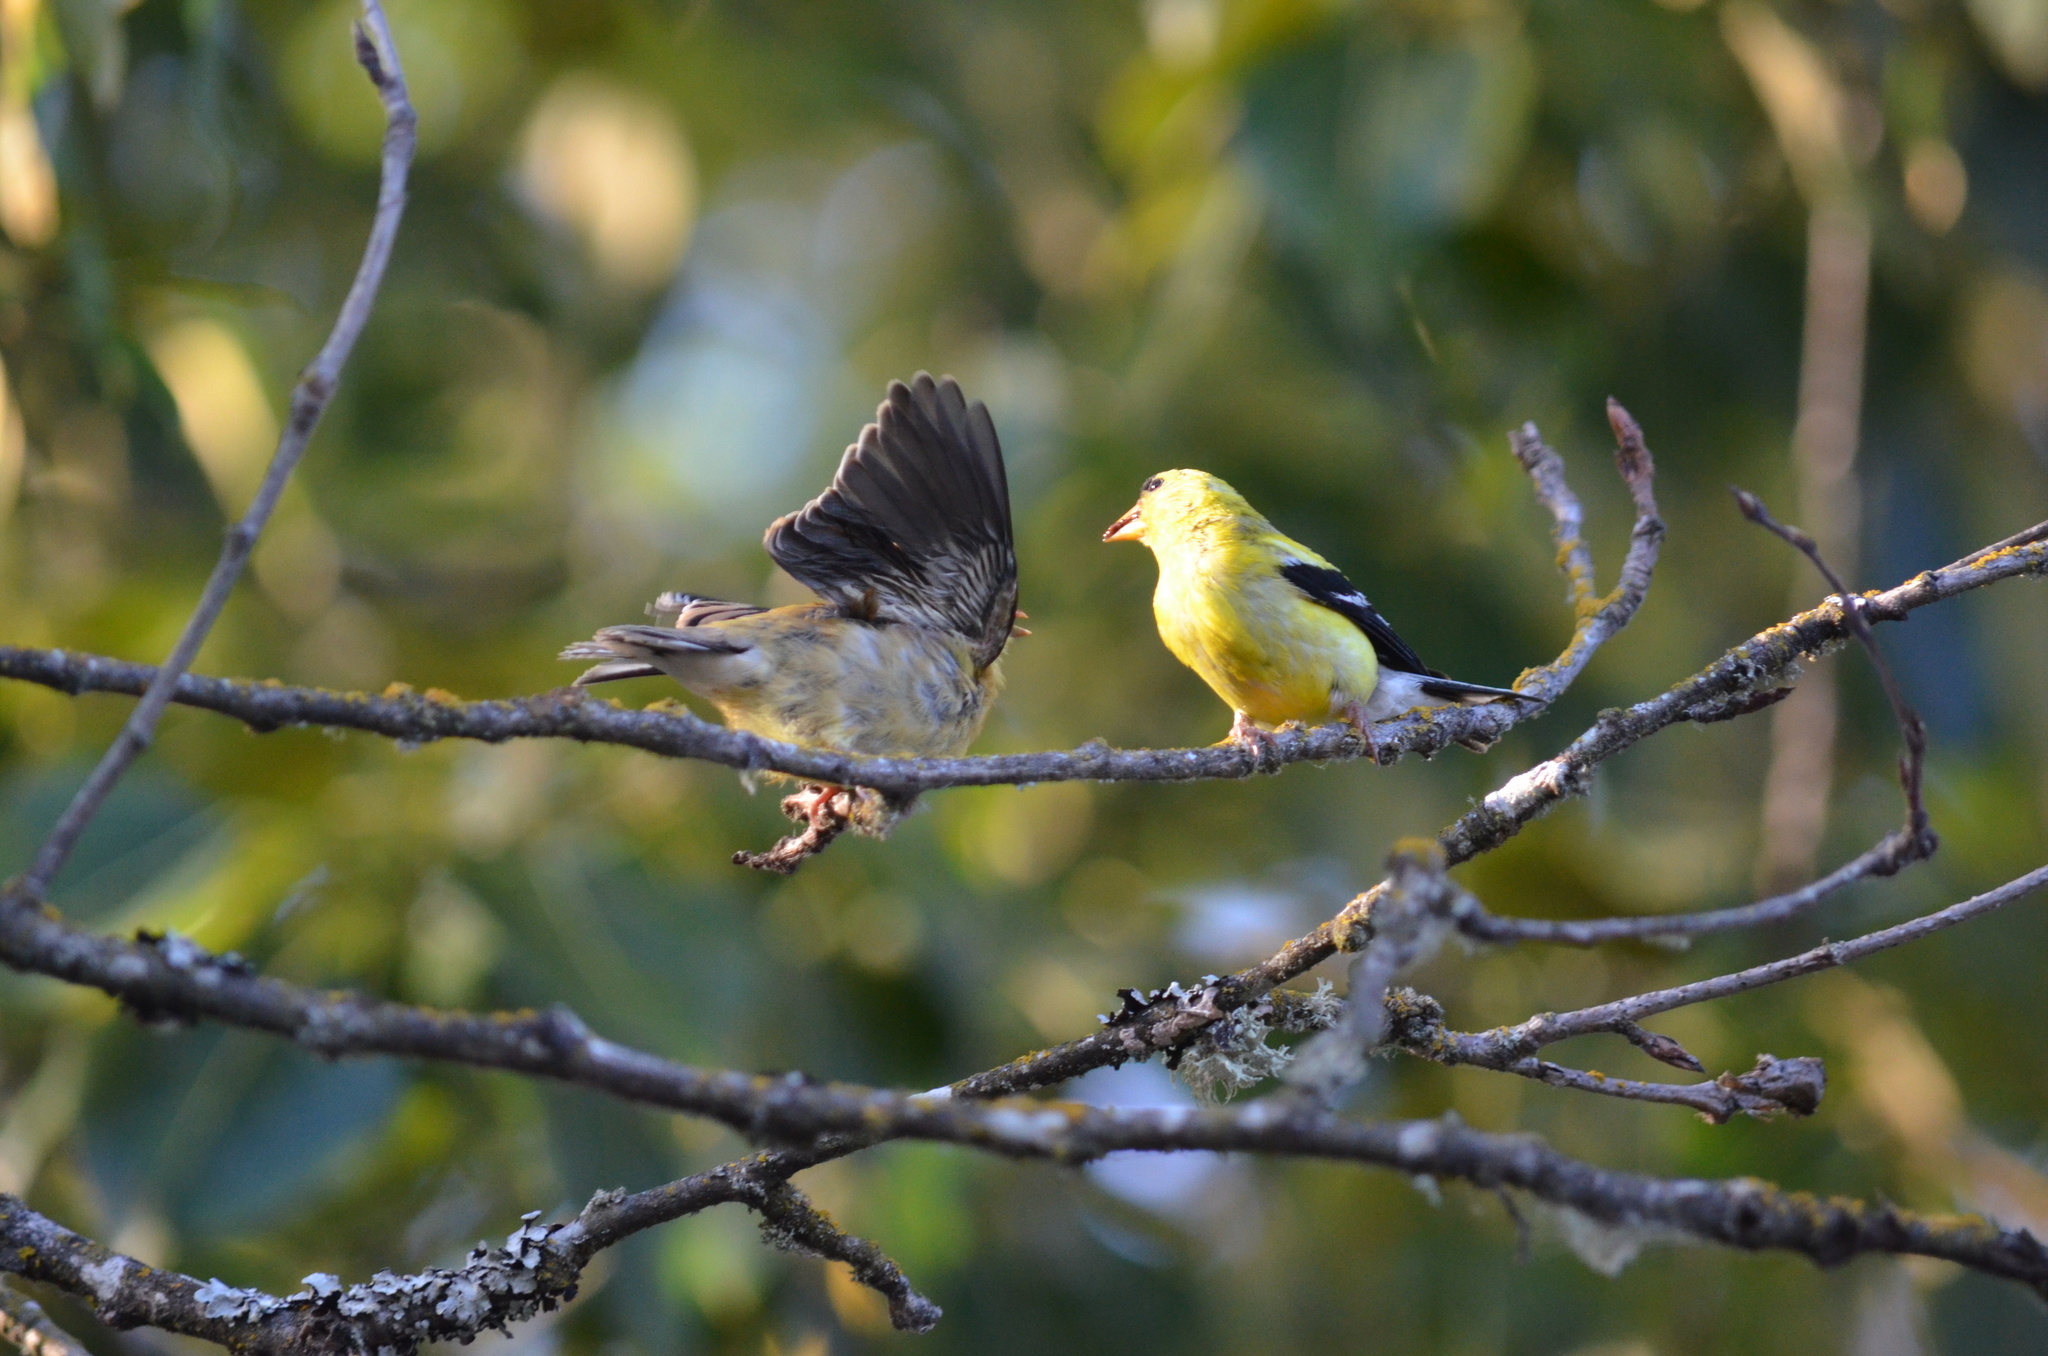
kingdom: Animalia
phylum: Chordata
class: Aves
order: Passeriformes
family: Fringillidae
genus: Spinus
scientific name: Spinus tristis
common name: American goldfinch
